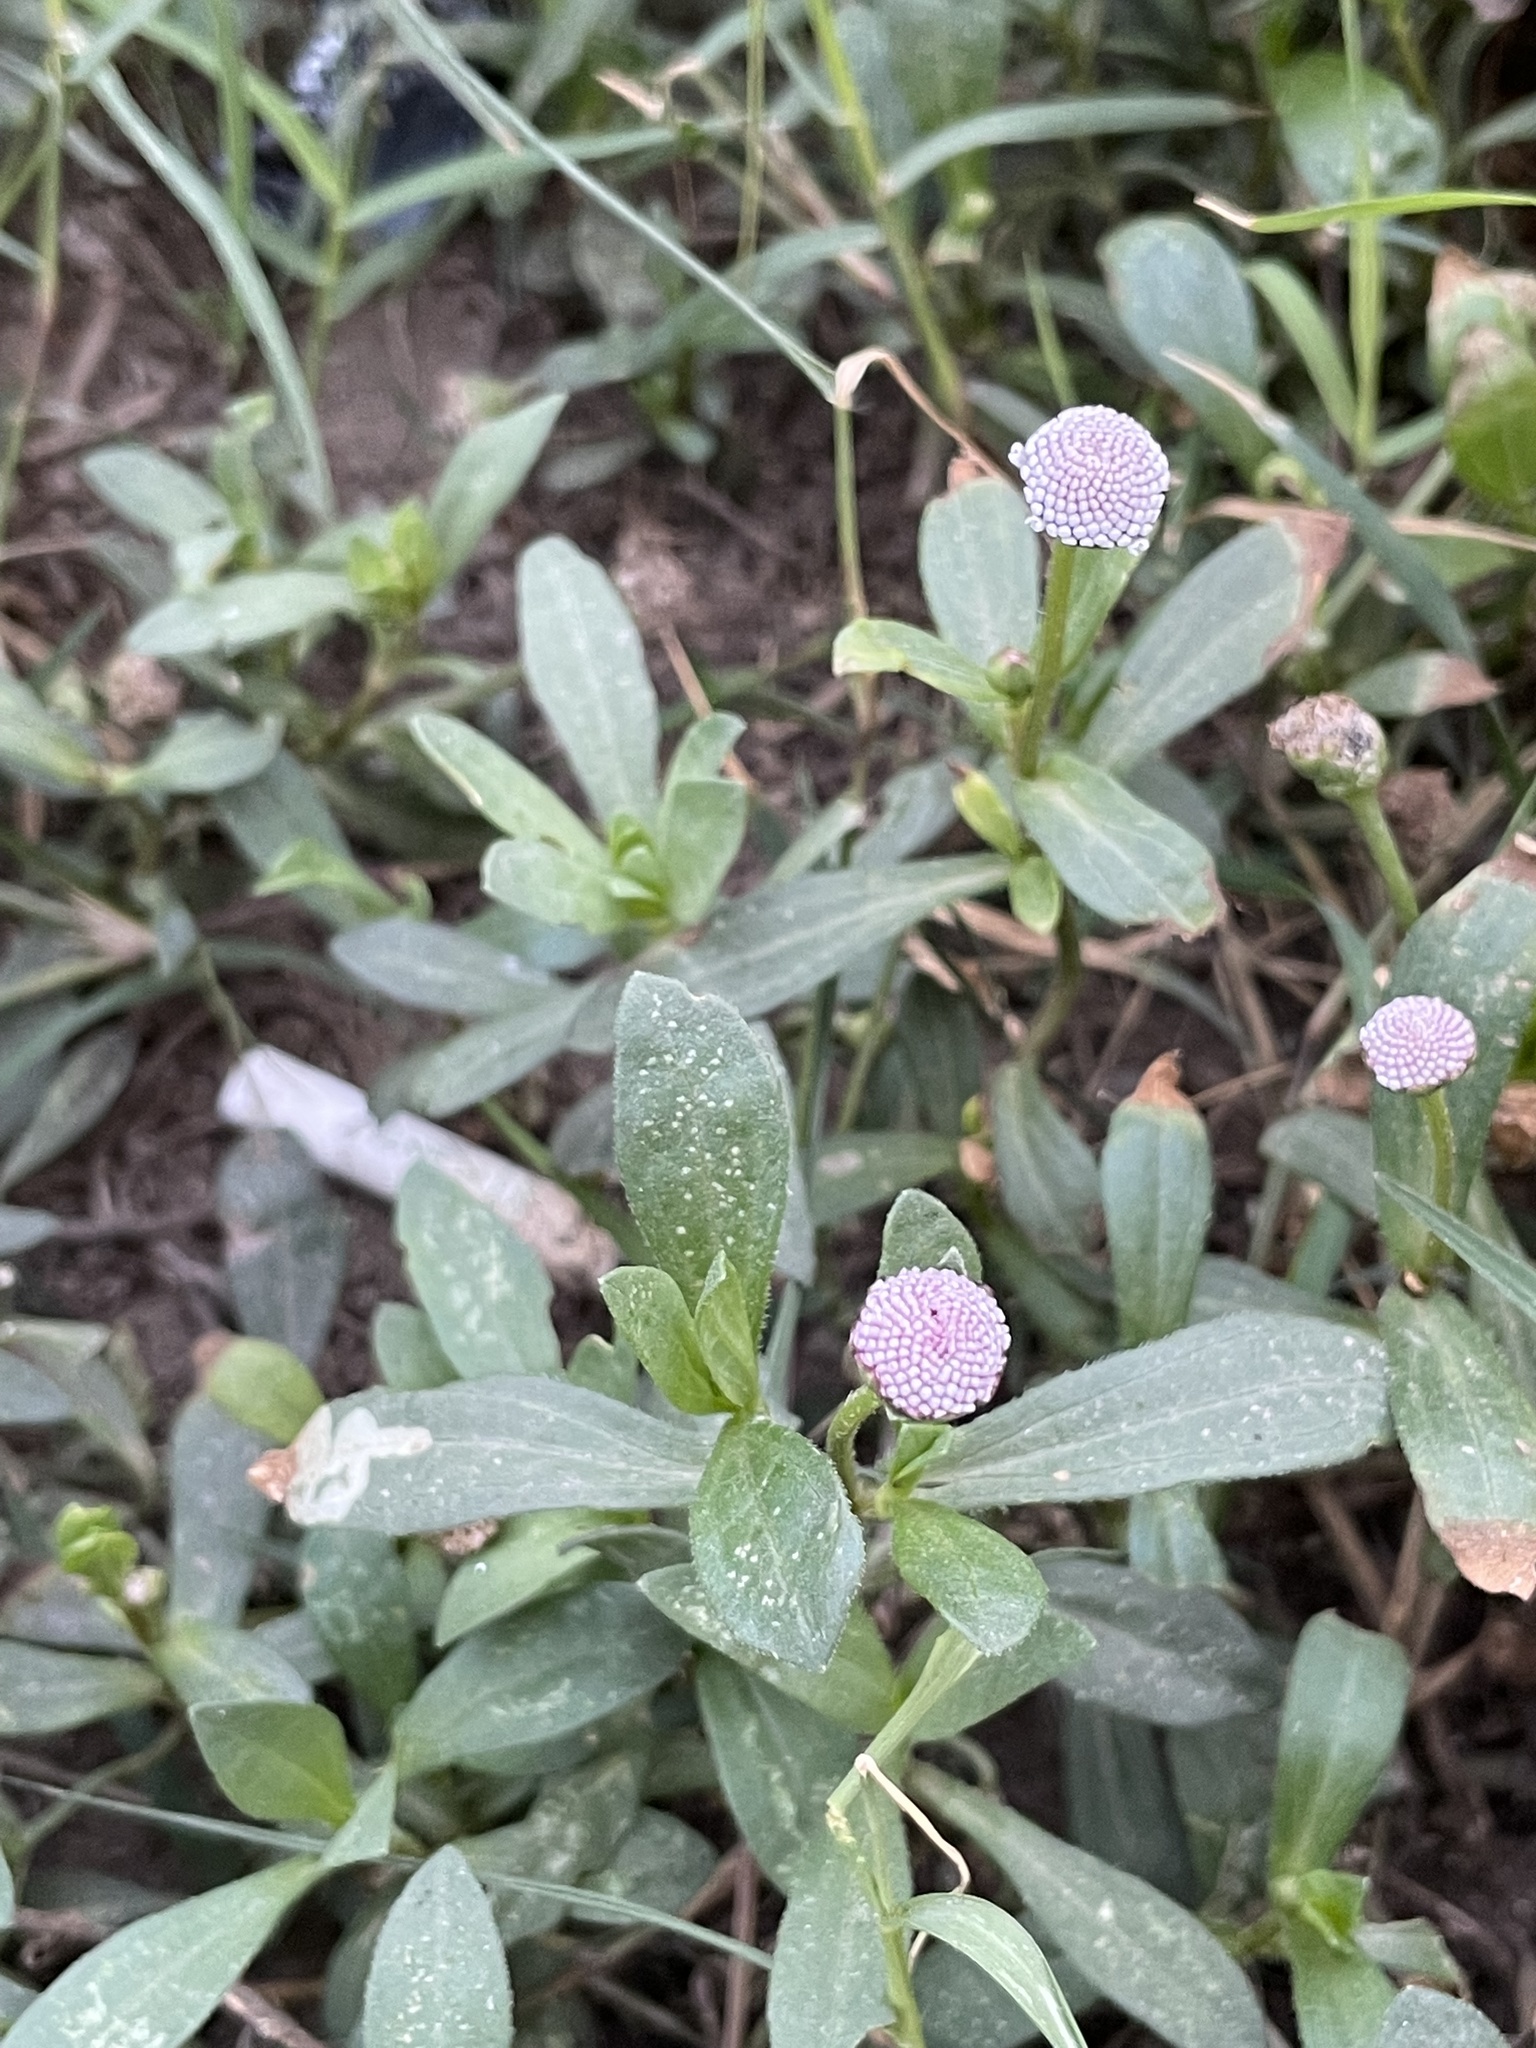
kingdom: Plantae
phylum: Tracheophyta
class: Magnoliopsida
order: Asterales
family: Asteraceae
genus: Spilanthes
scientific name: Spilanthes leiocarpa
